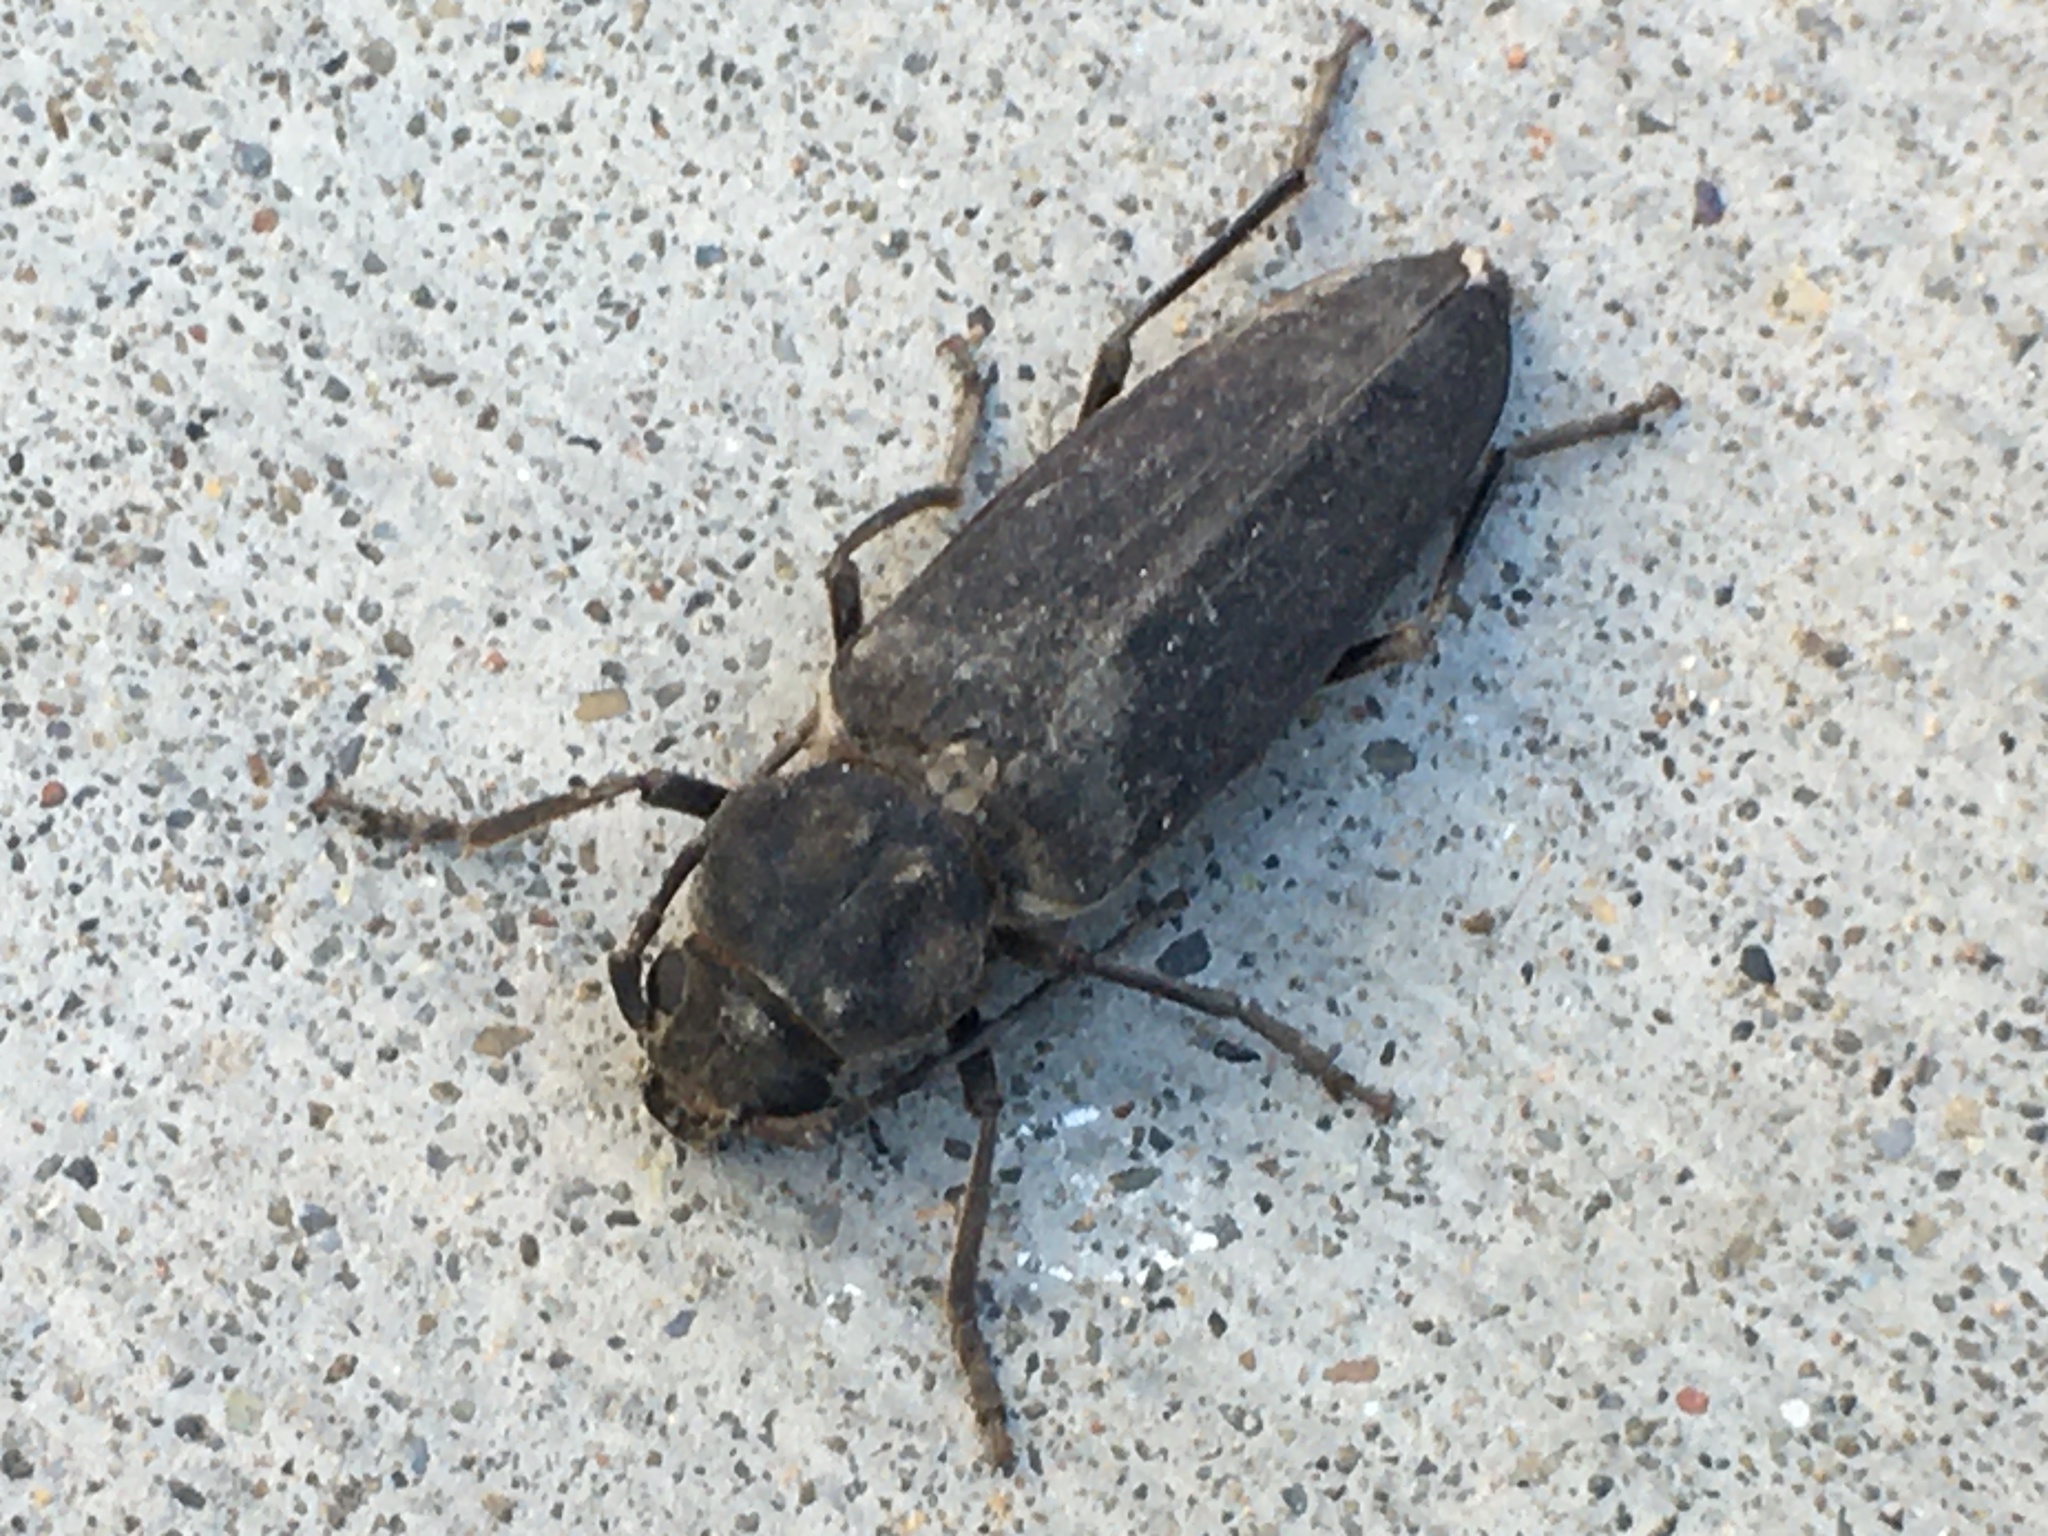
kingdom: Animalia
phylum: Arthropoda
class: Insecta
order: Coleoptera
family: Cerambycidae
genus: Arhopalus
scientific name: Arhopalus asperatus
